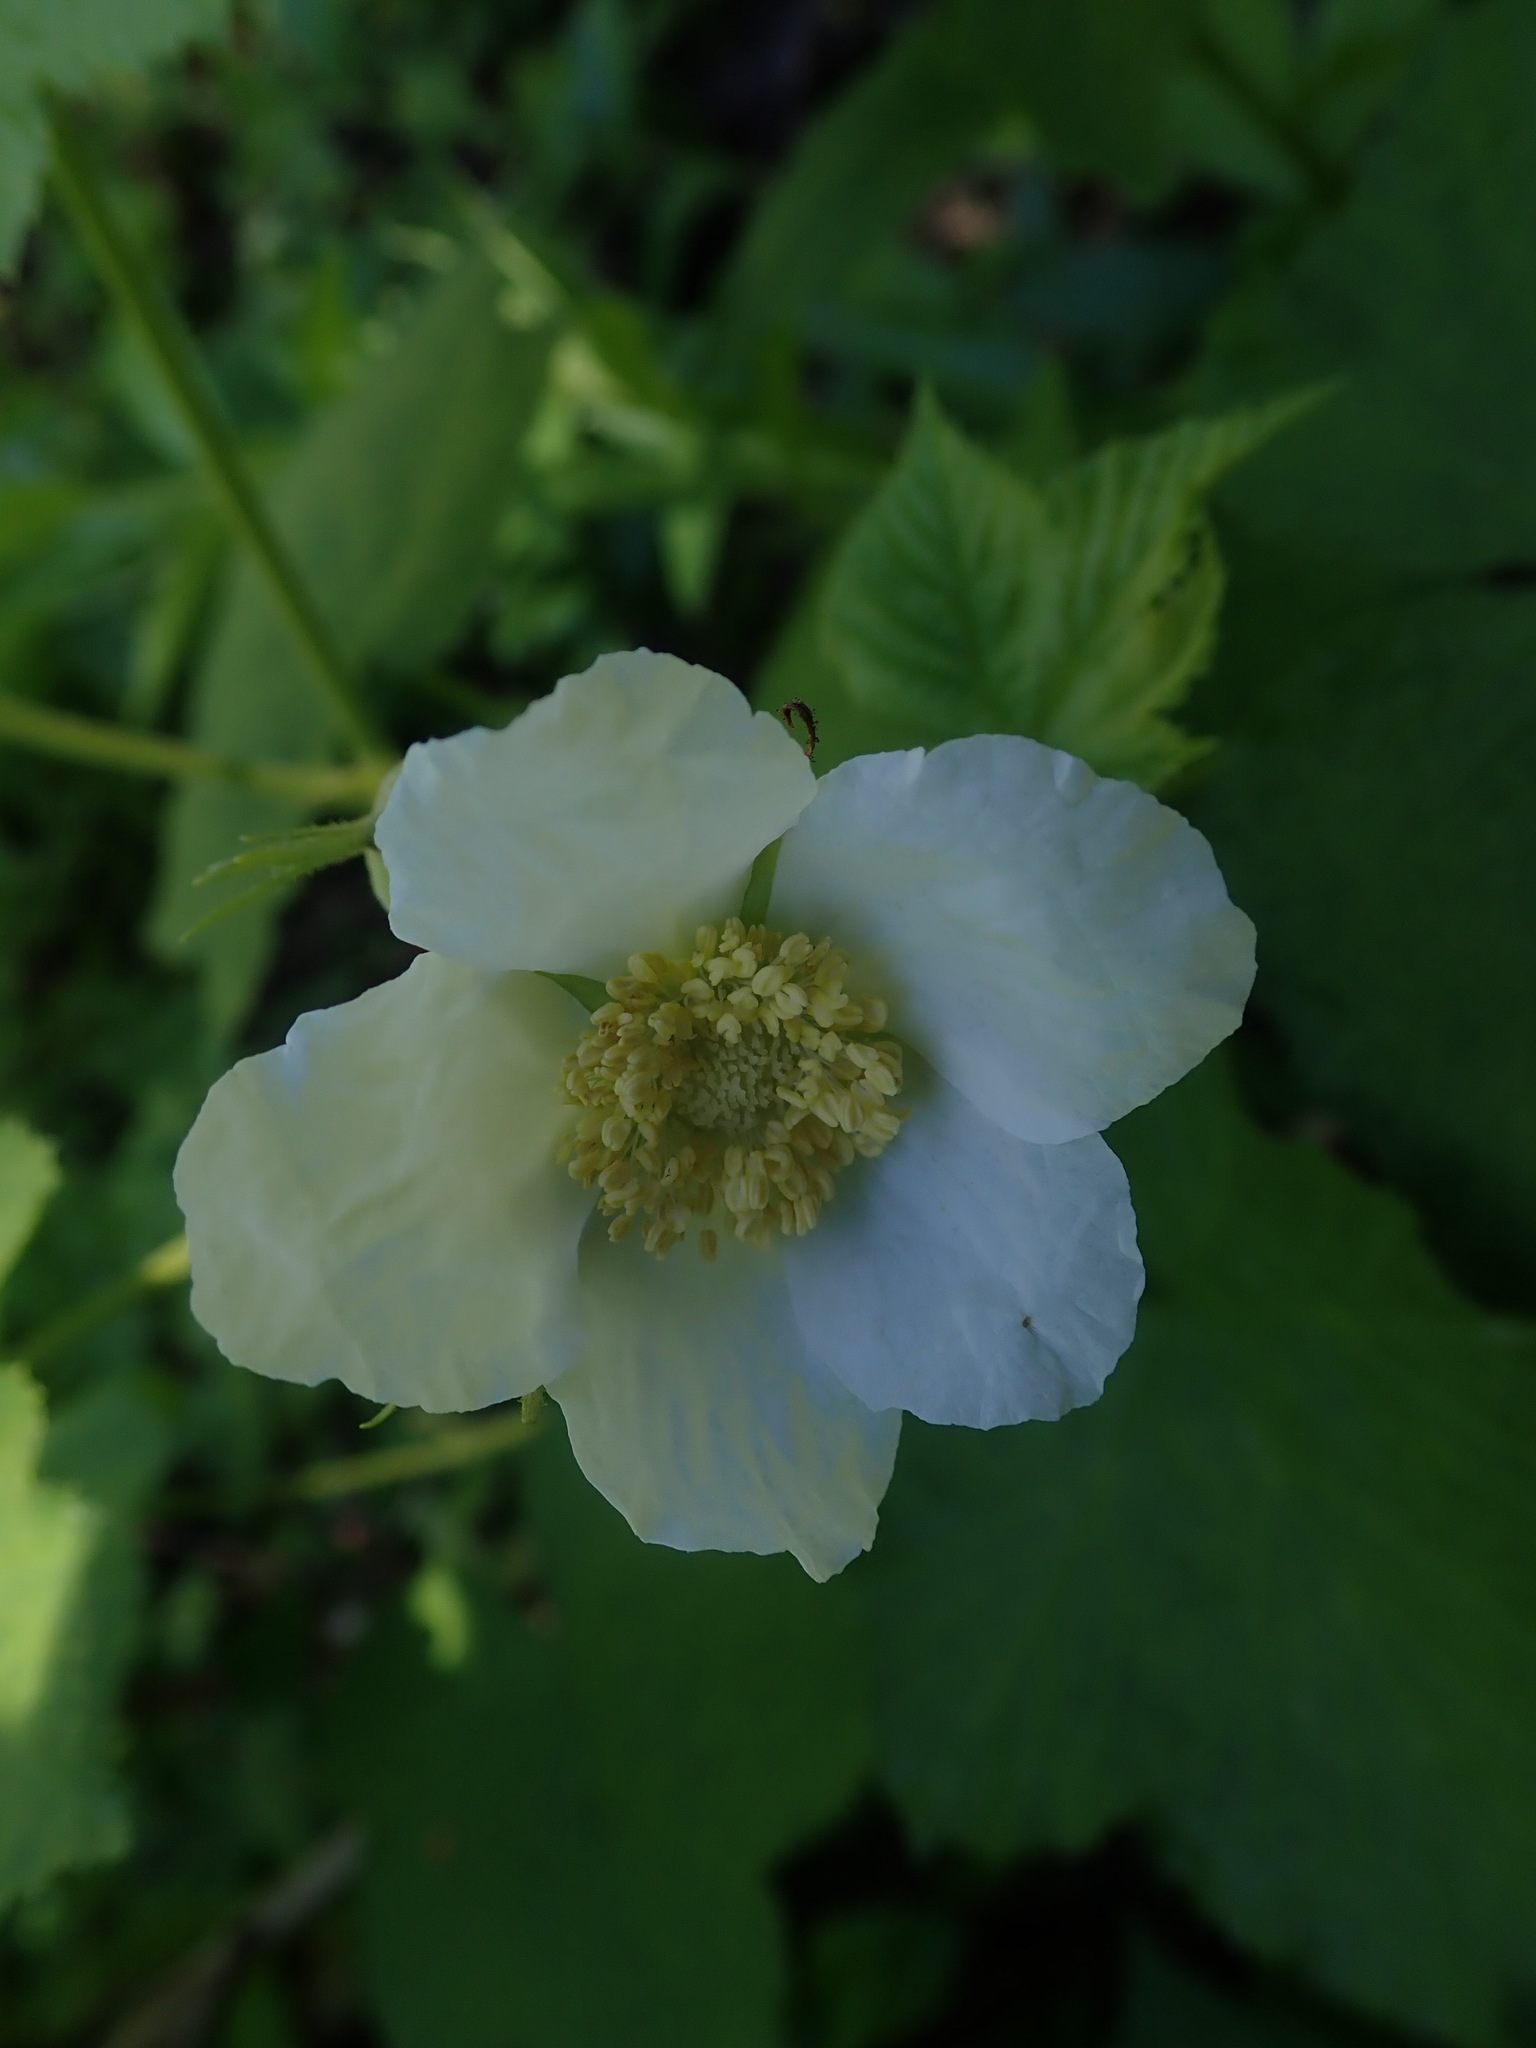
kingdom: Plantae
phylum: Tracheophyta
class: Magnoliopsida
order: Rosales
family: Rosaceae
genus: Rubus
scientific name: Rubus parviflorus
